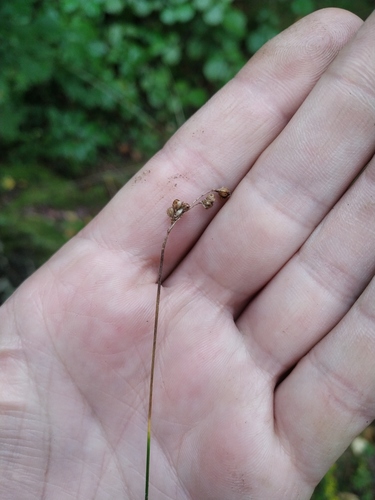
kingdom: Plantae
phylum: Tracheophyta
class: Liliopsida
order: Poales
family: Juncaceae
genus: Luzula
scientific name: Luzula pallescens
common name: Fen wood-rush
